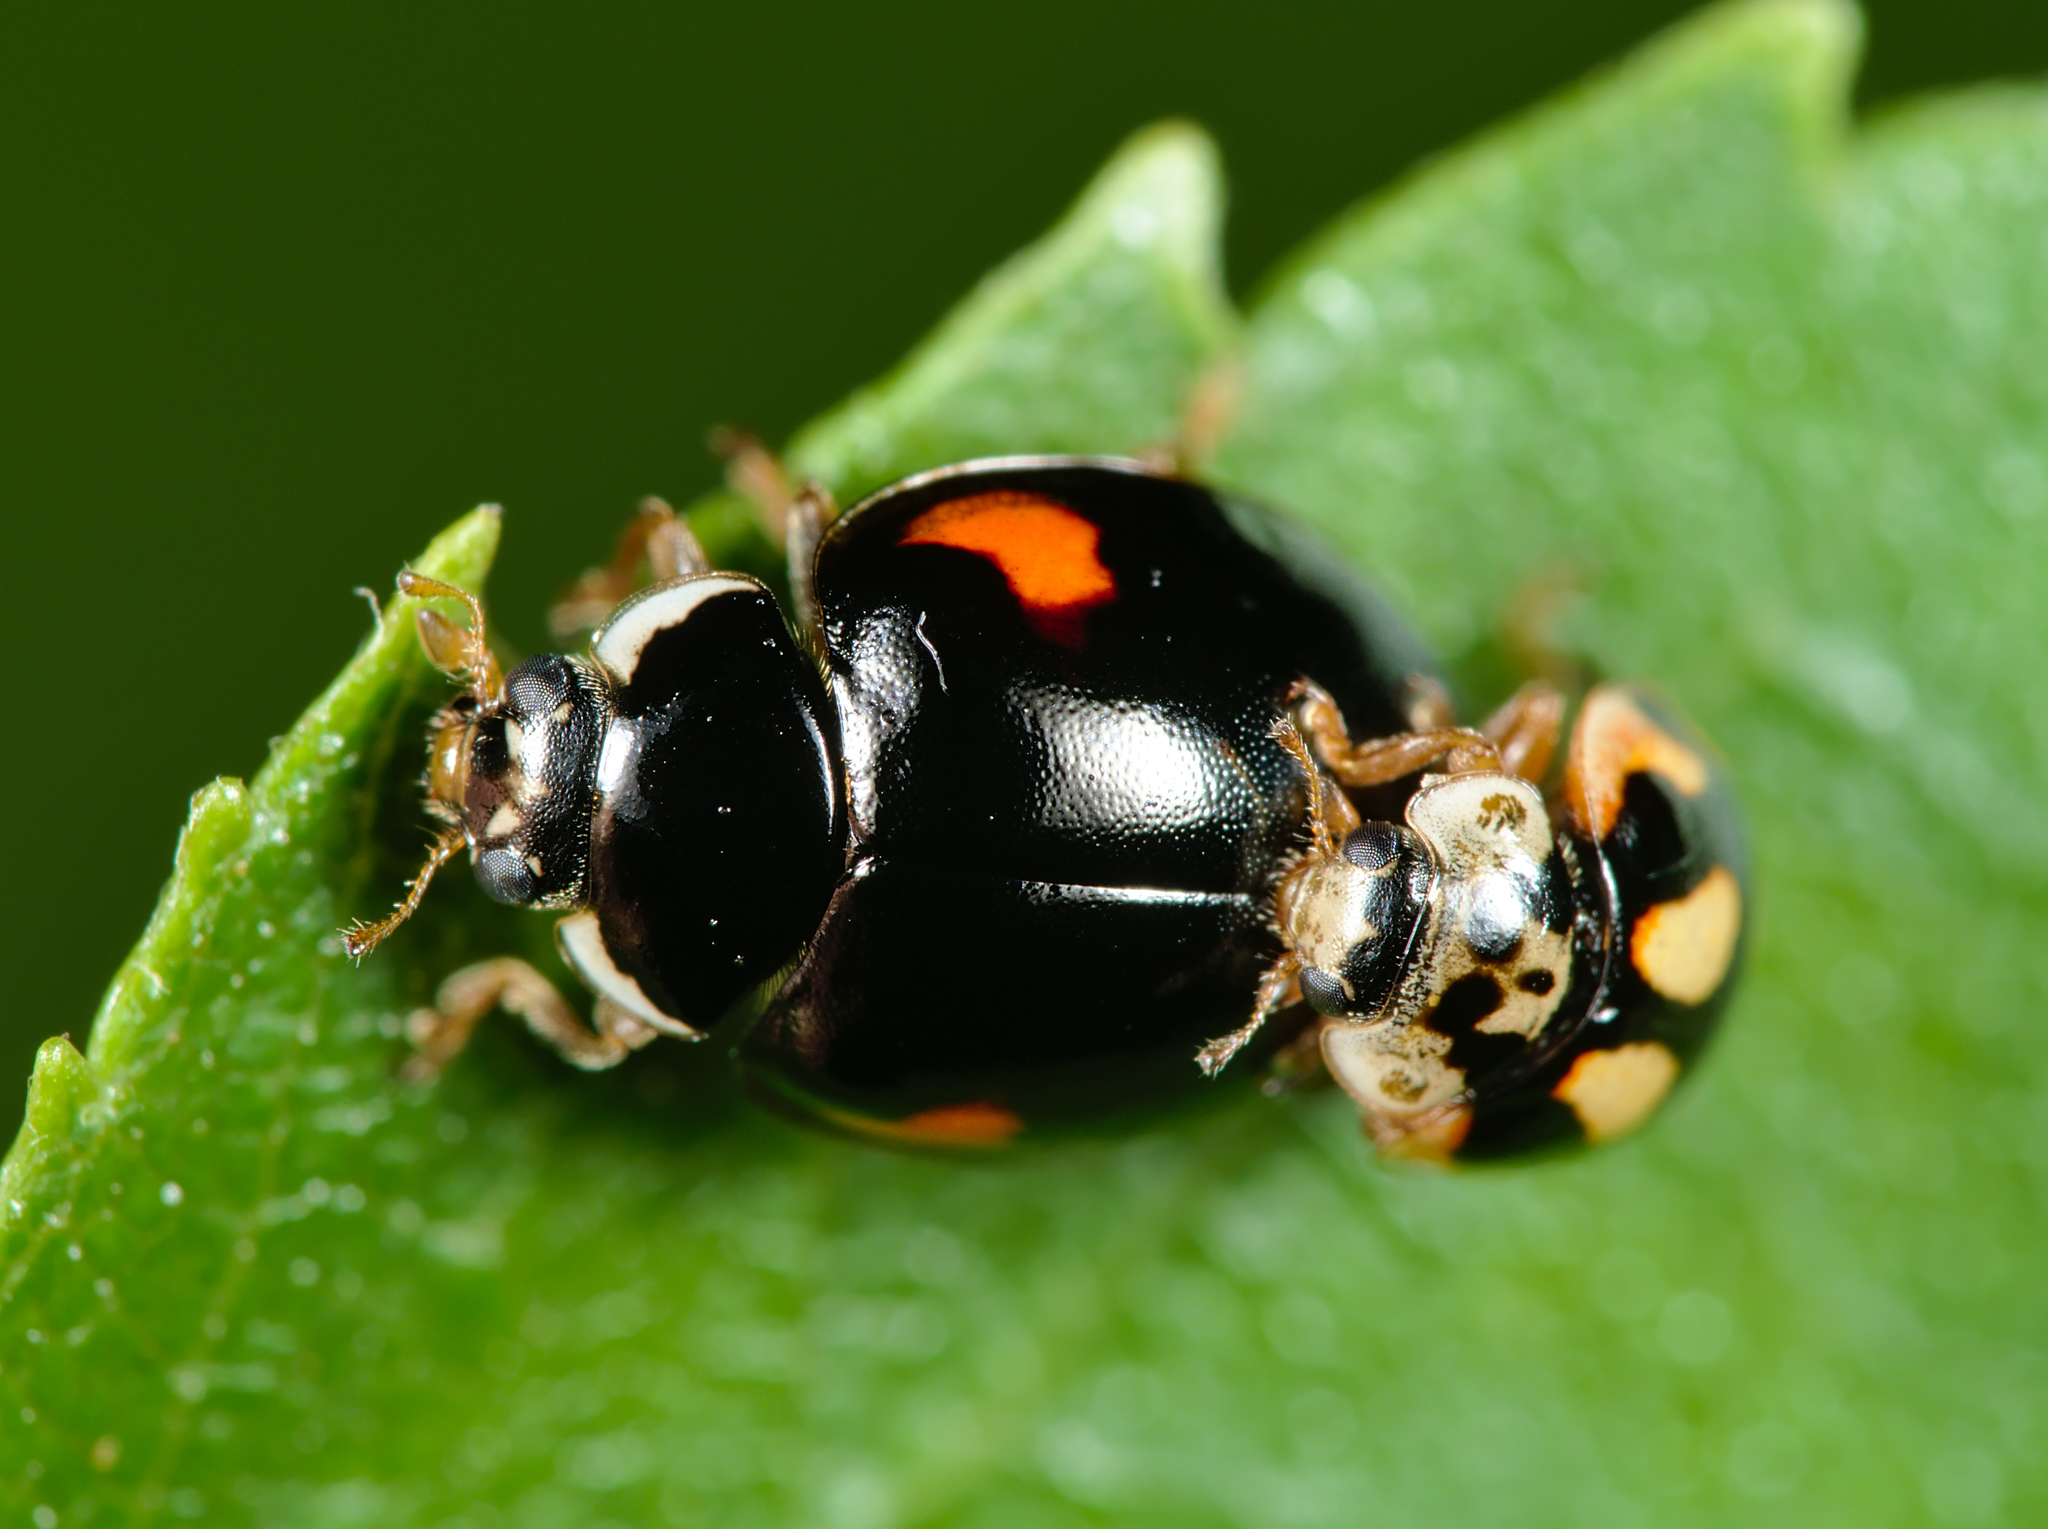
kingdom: Animalia
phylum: Arthropoda
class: Insecta
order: Coleoptera
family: Coccinellidae
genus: Adalia
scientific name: Adalia decempunctata
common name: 10-spot ladybird
